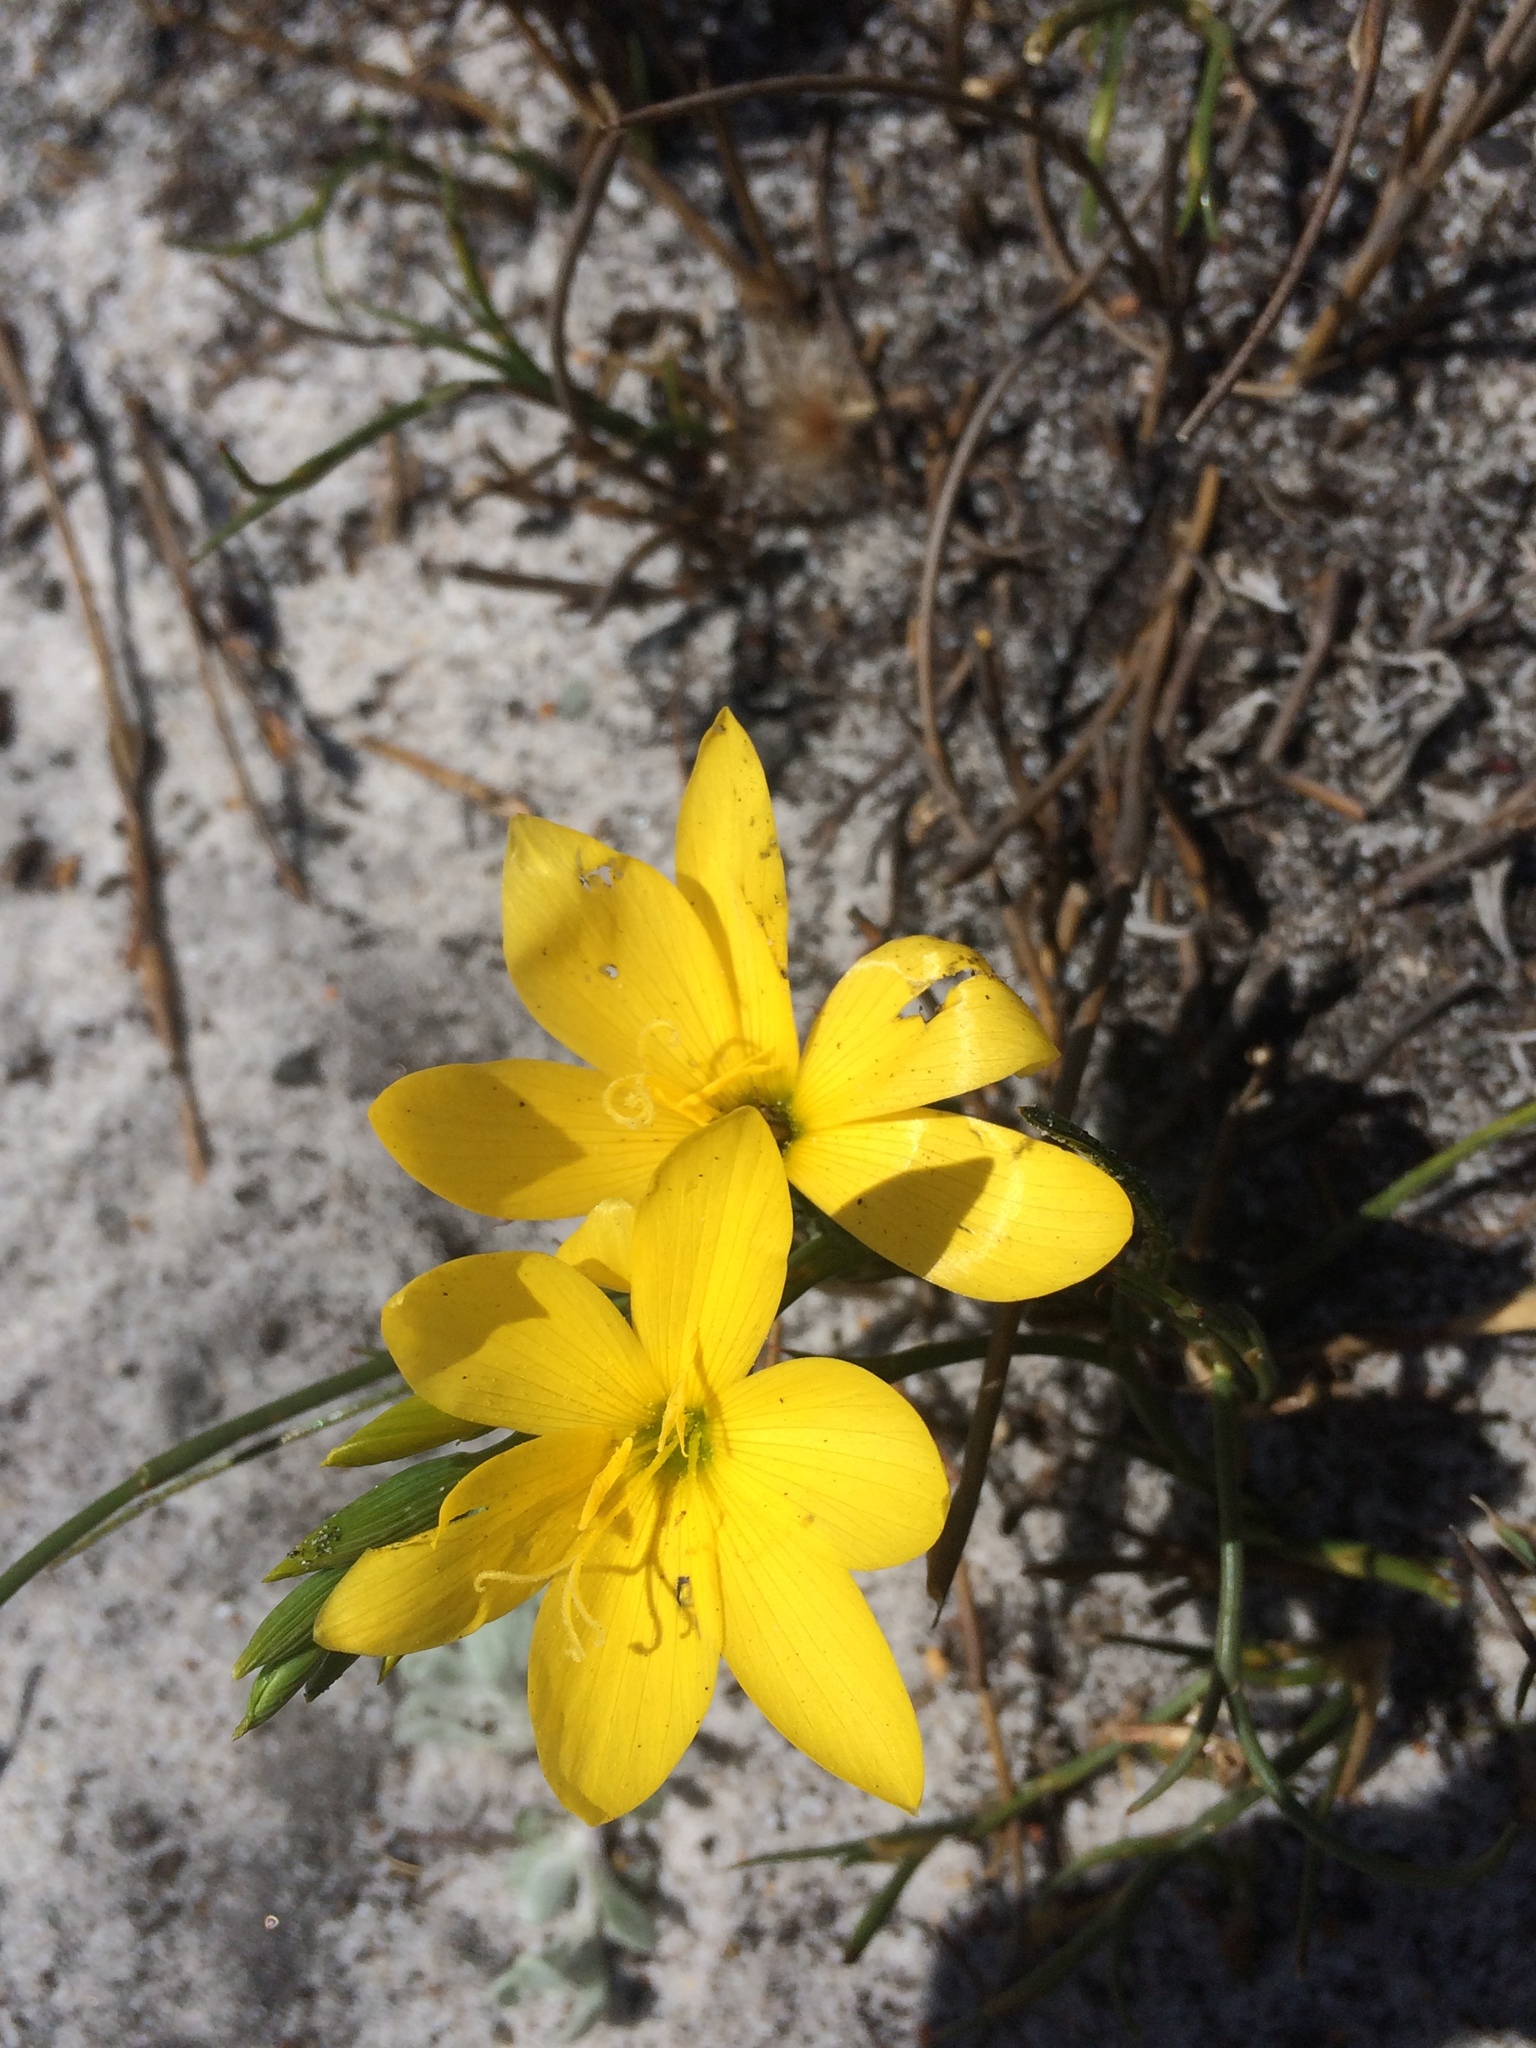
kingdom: Plantae
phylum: Tracheophyta
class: Liliopsida
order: Asparagales
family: Iridaceae
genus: Geissorhiza
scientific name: Geissorhiza humilis
